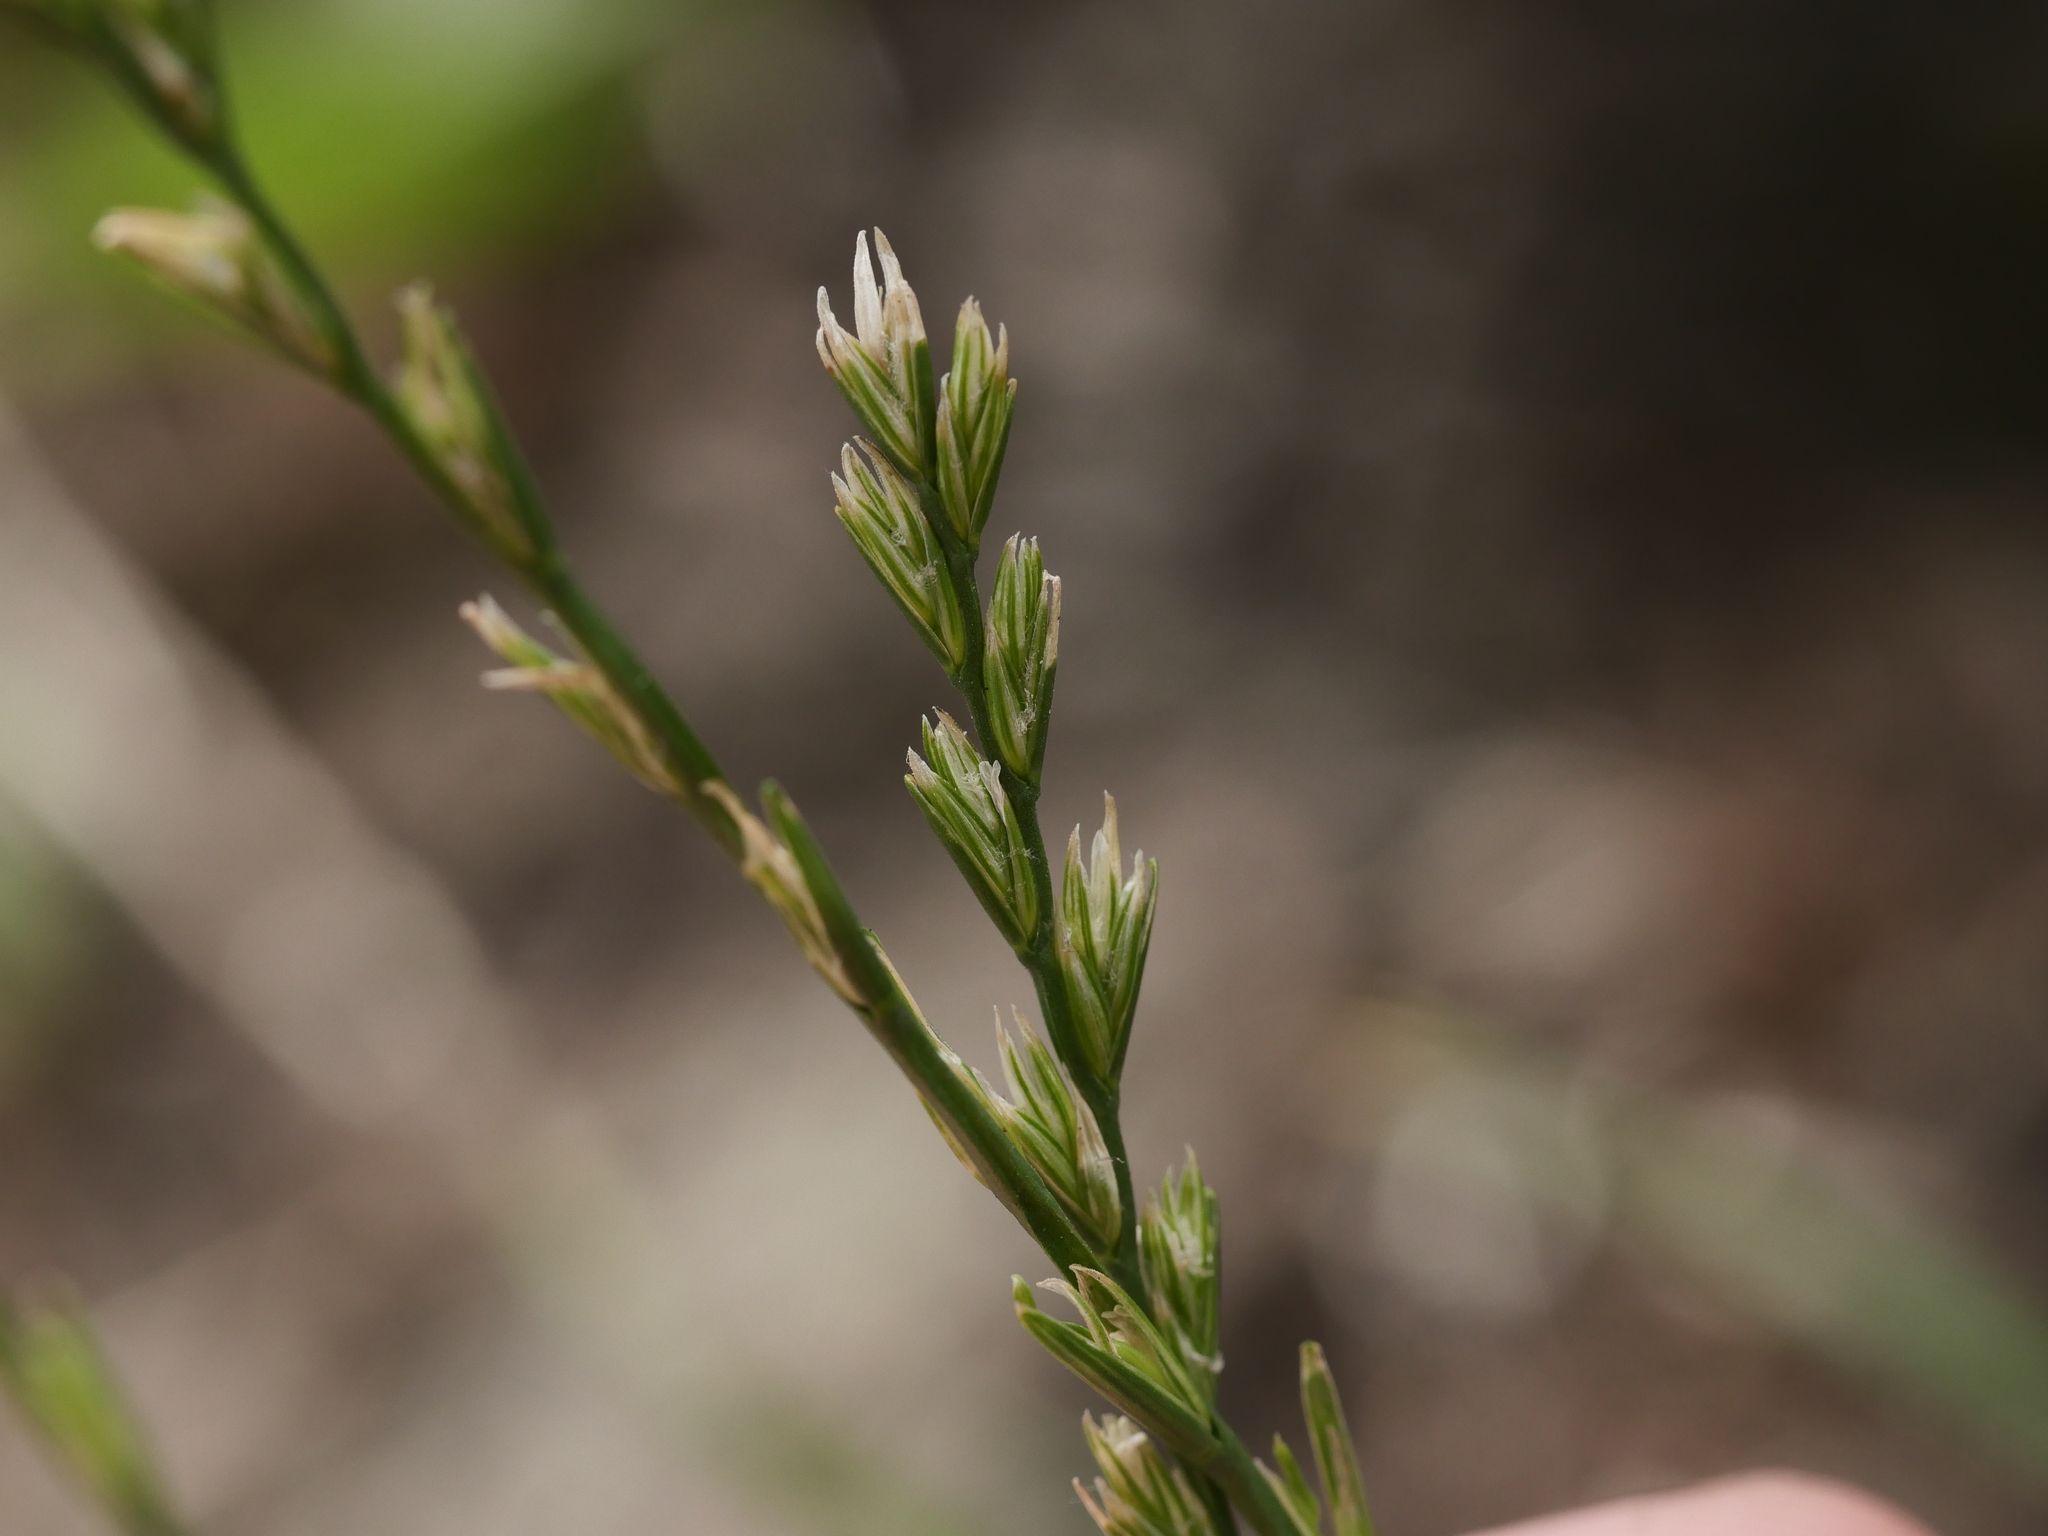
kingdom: Plantae
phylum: Tracheophyta
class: Liliopsida
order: Poales
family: Poaceae
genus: Lolium
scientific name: Lolium perenne
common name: Perennial ryegrass
